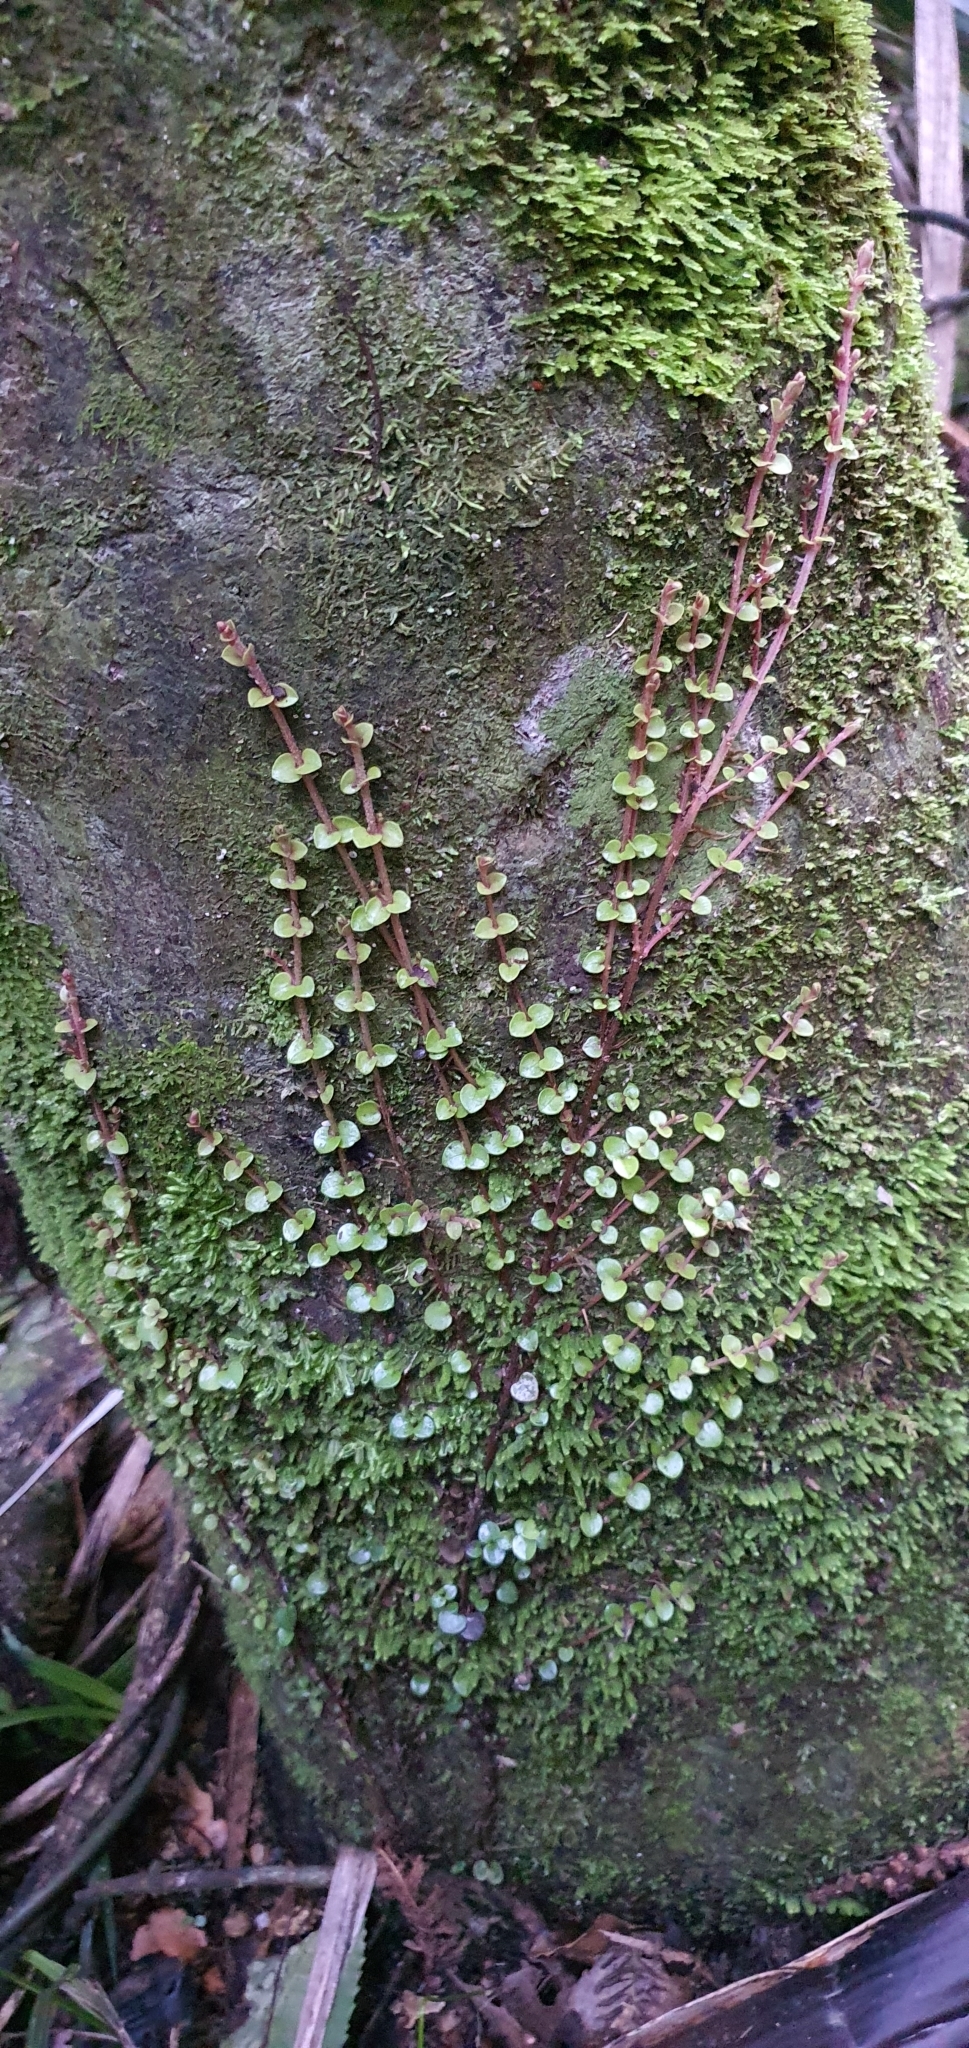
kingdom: Plantae
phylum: Tracheophyta
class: Magnoliopsida
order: Myrtales
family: Myrtaceae
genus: Metrosideros
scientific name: Metrosideros perforata
